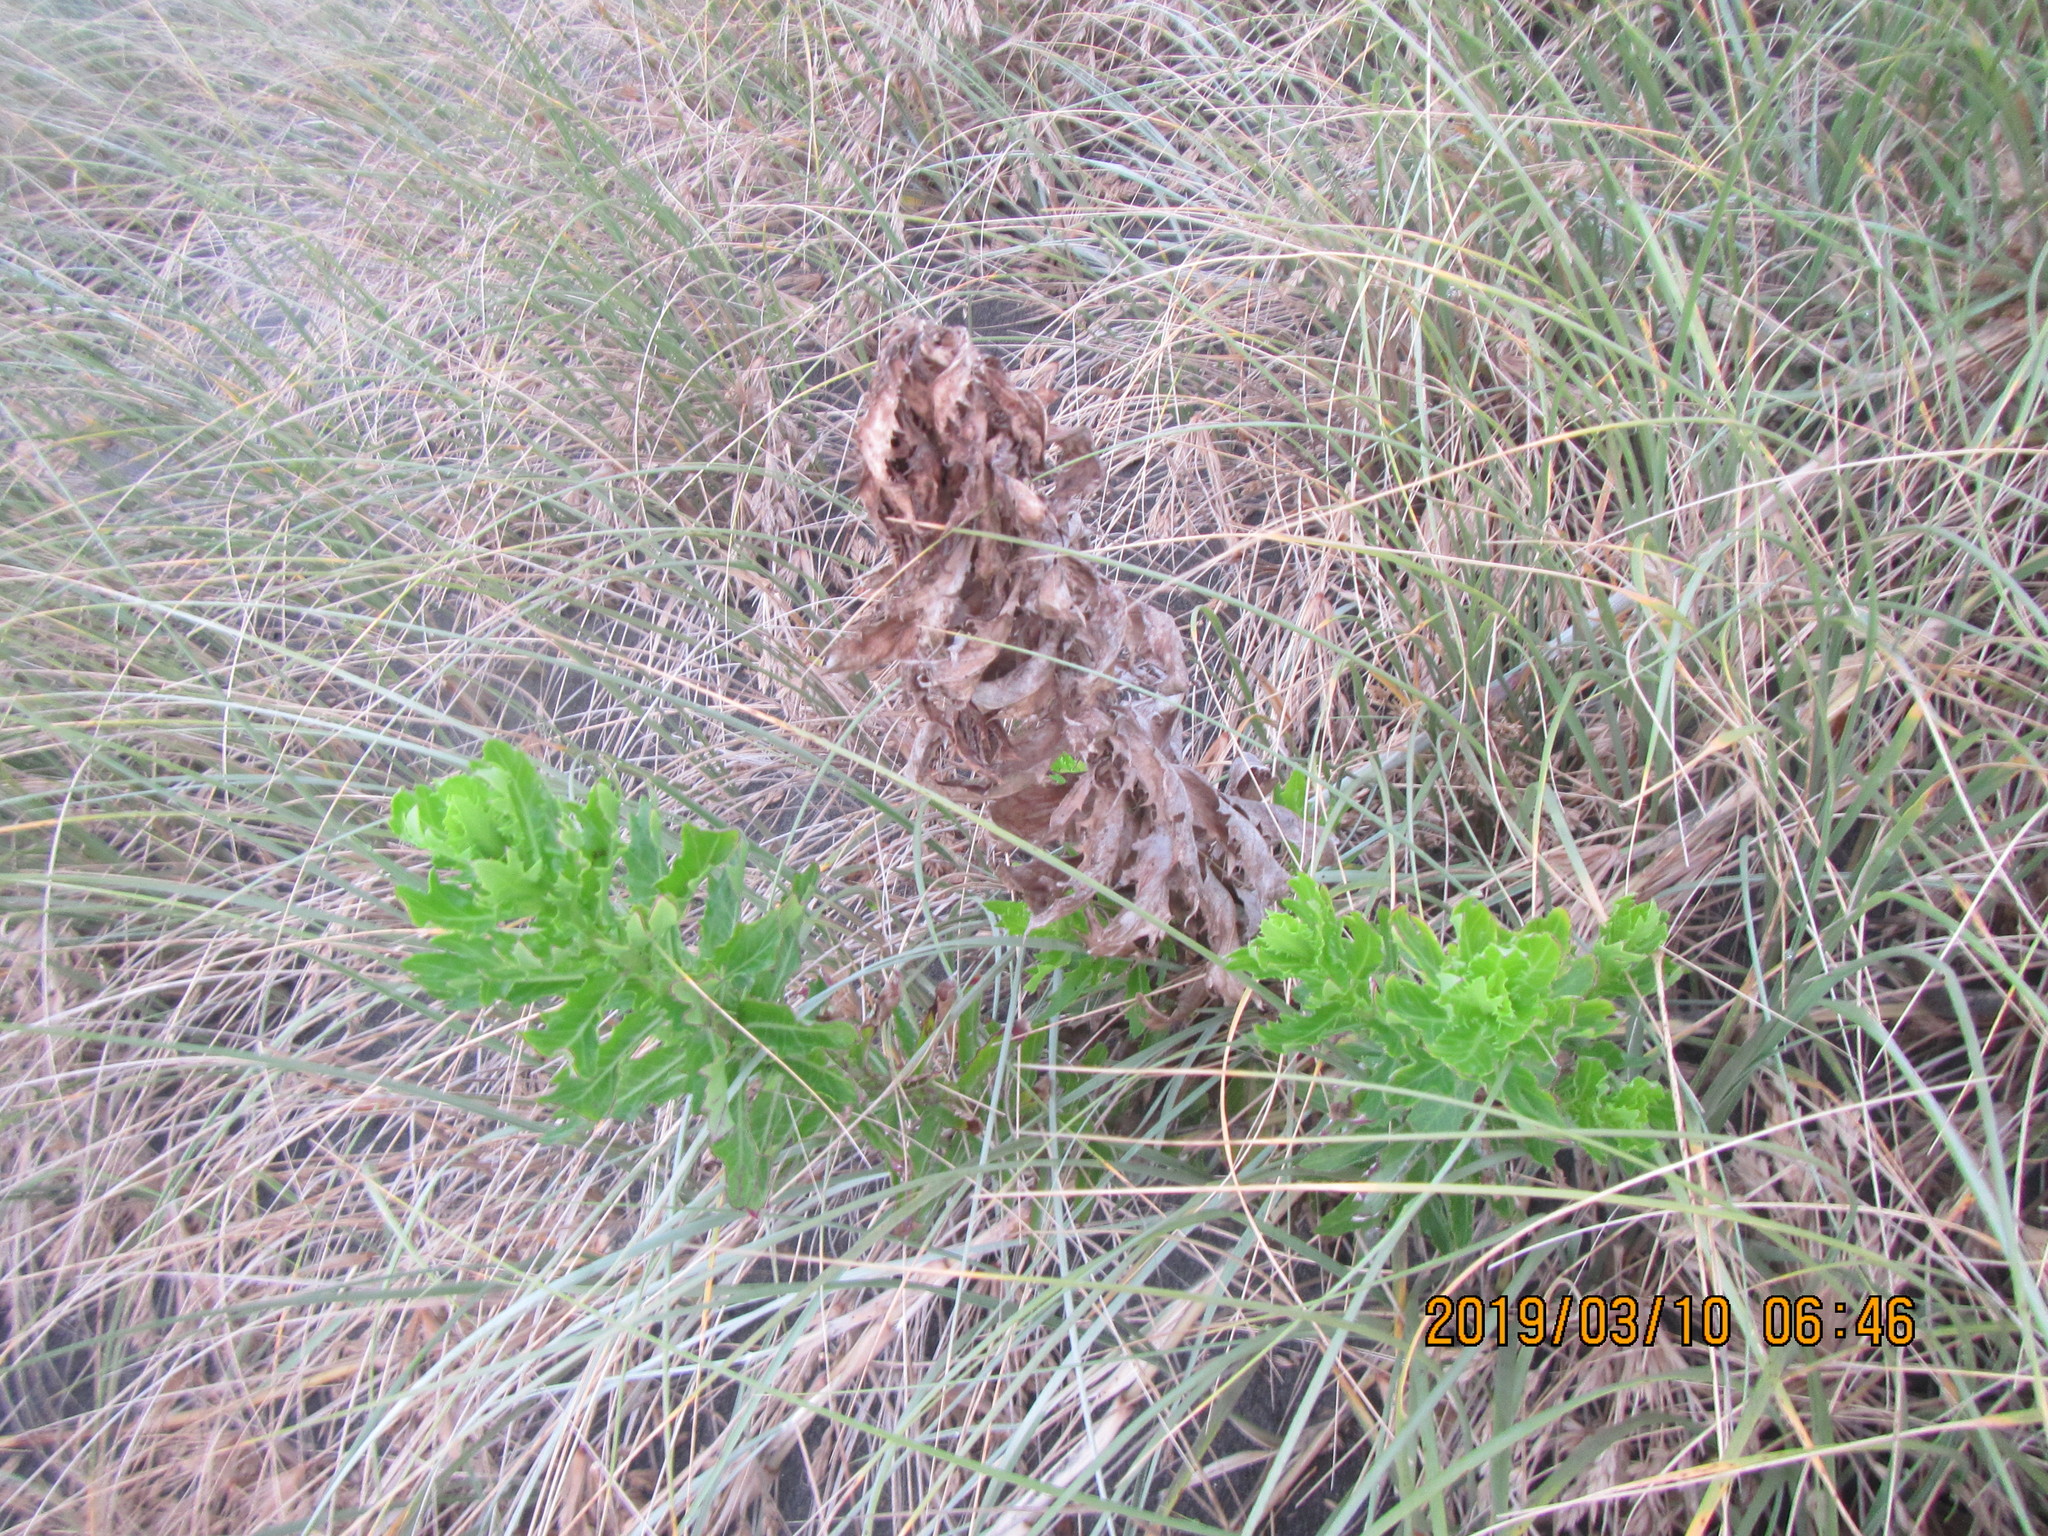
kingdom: Plantae
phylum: Tracheophyta
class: Magnoliopsida
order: Asterales
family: Asteraceae
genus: Senecio
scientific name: Senecio glastifolius
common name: Woad-leaved ragwort
